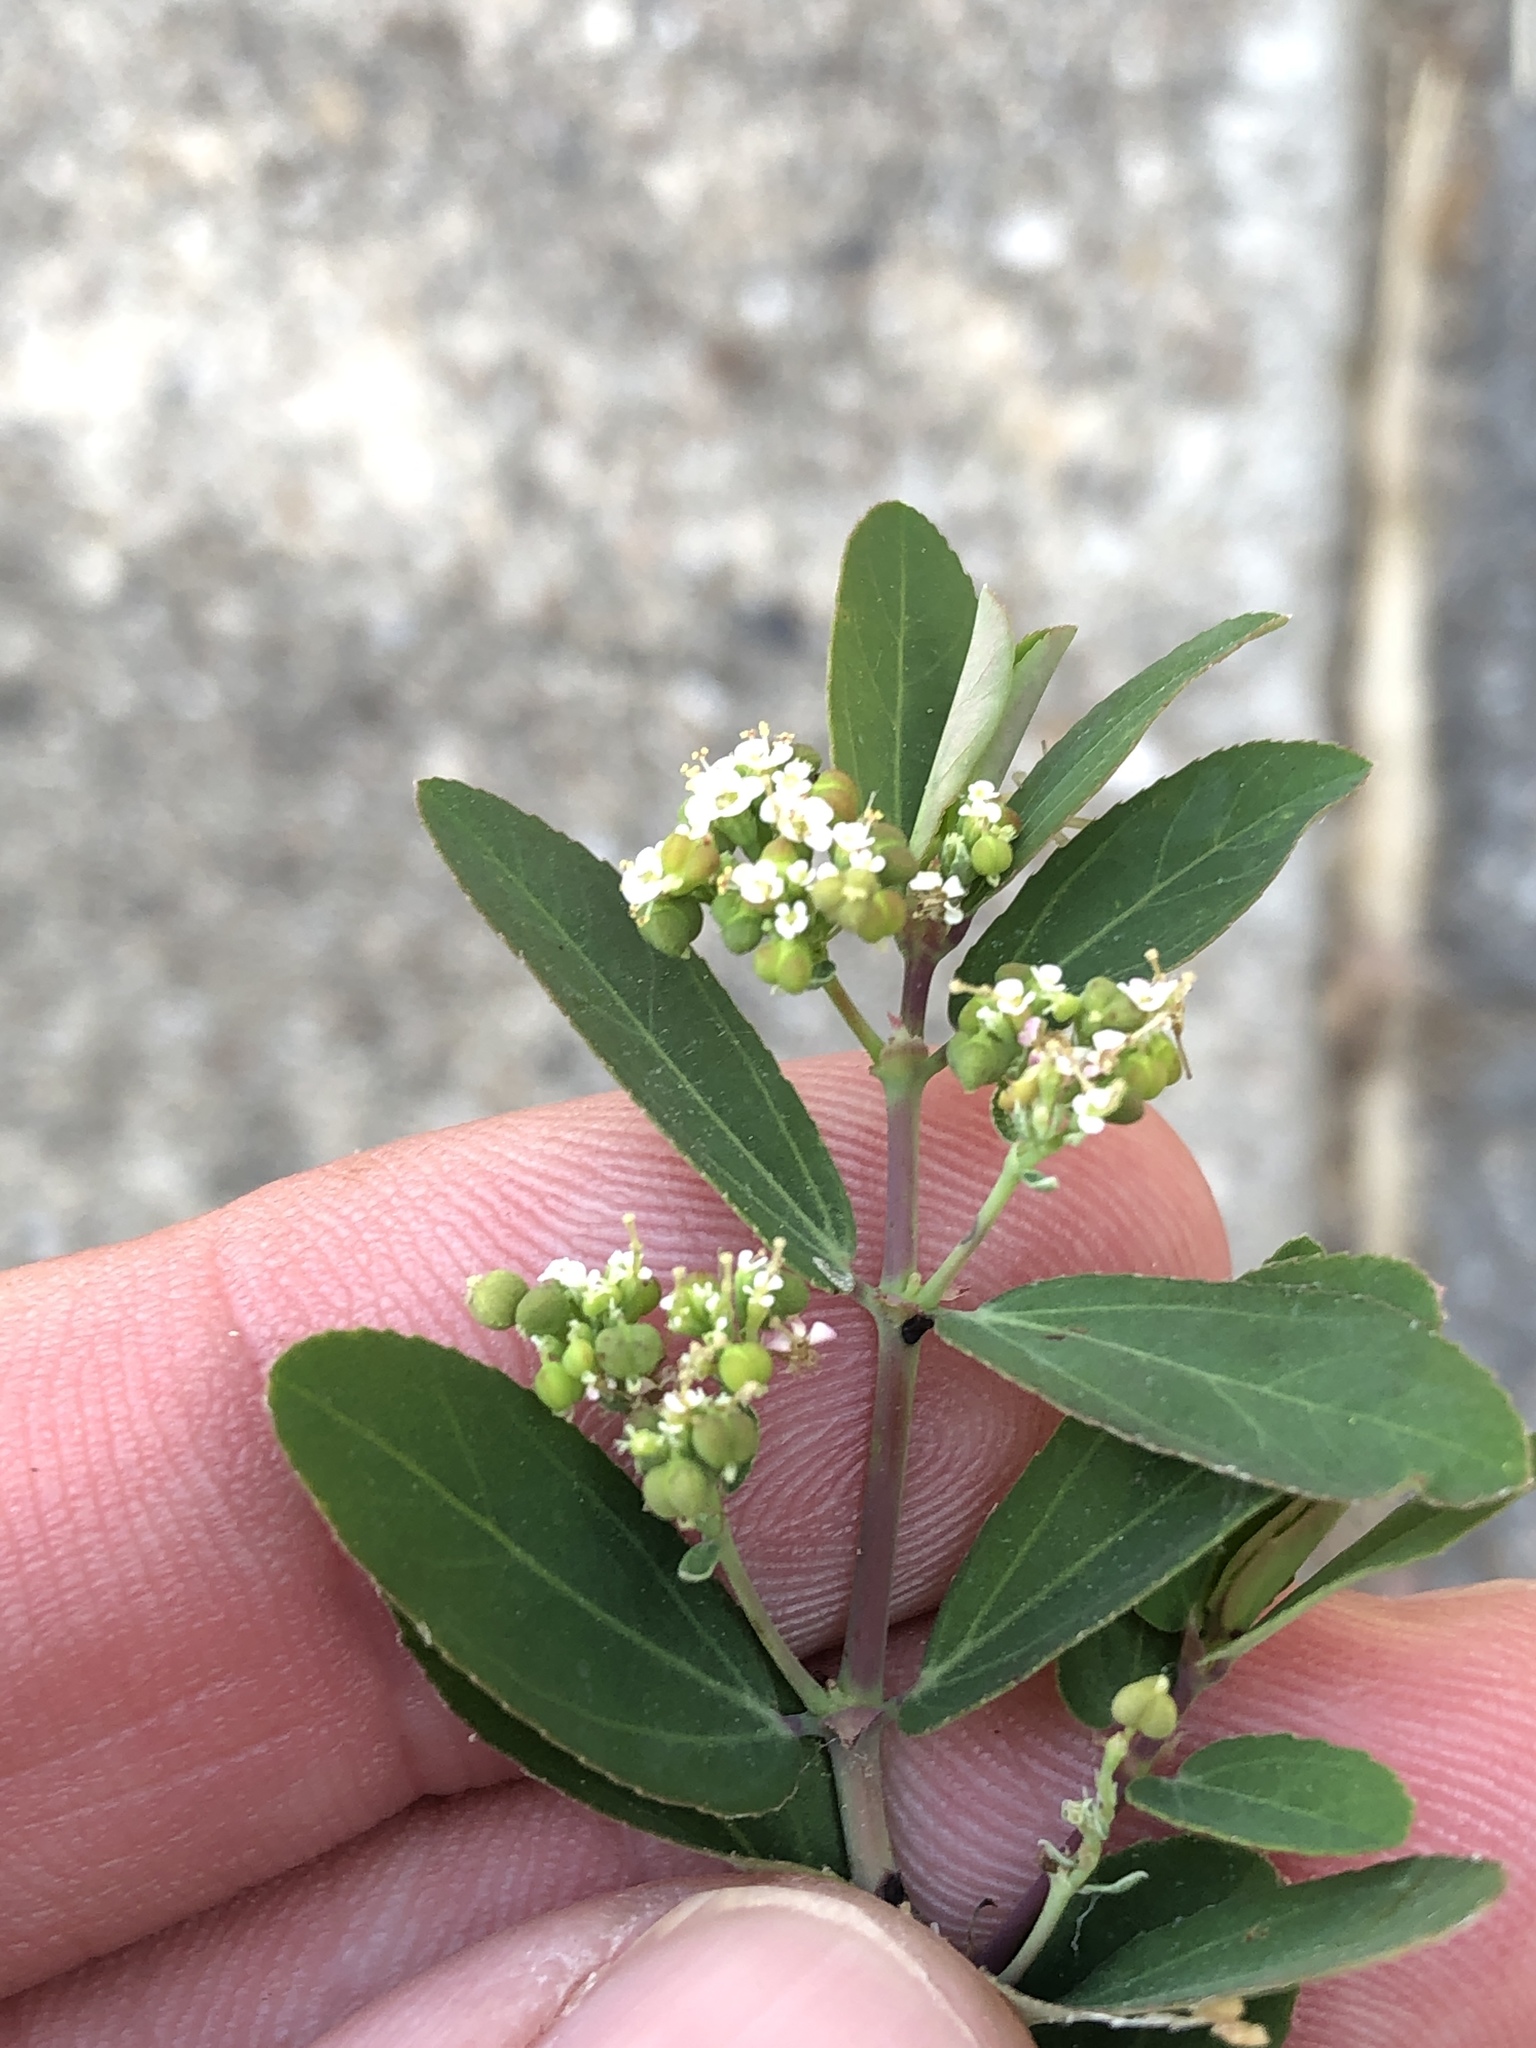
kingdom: Plantae
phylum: Tracheophyta
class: Magnoliopsida
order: Malpighiales
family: Euphorbiaceae
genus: Euphorbia
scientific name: Euphorbia hypericifolia
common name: Graceful sandmat
